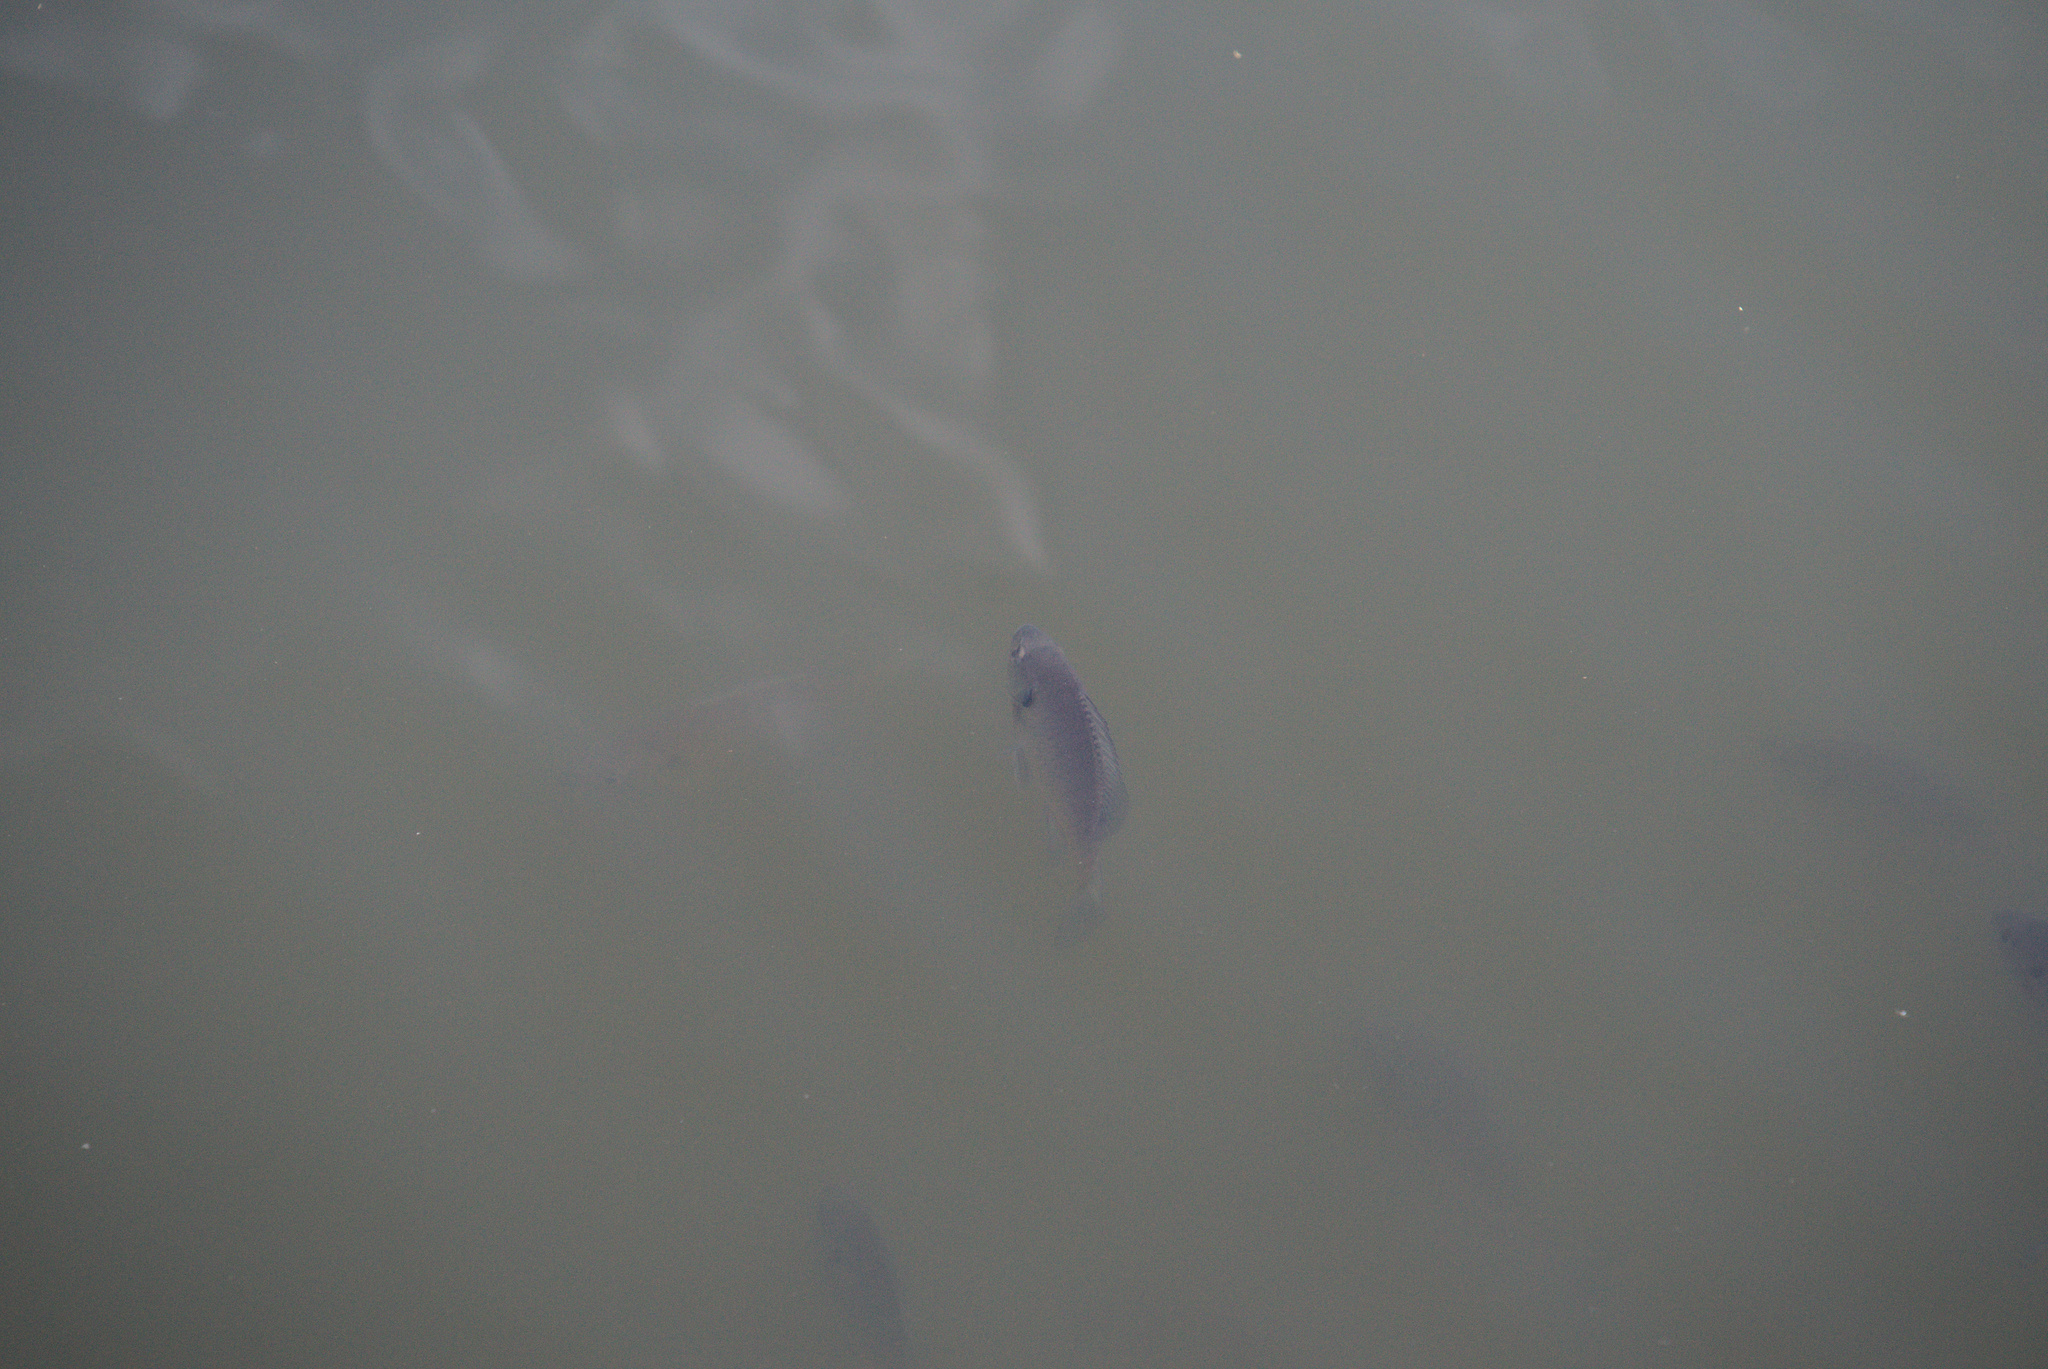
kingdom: Animalia
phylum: Chordata
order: Perciformes
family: Centrarchidae
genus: Lepomis
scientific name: Lepomis macrochirus
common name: Bluegill
